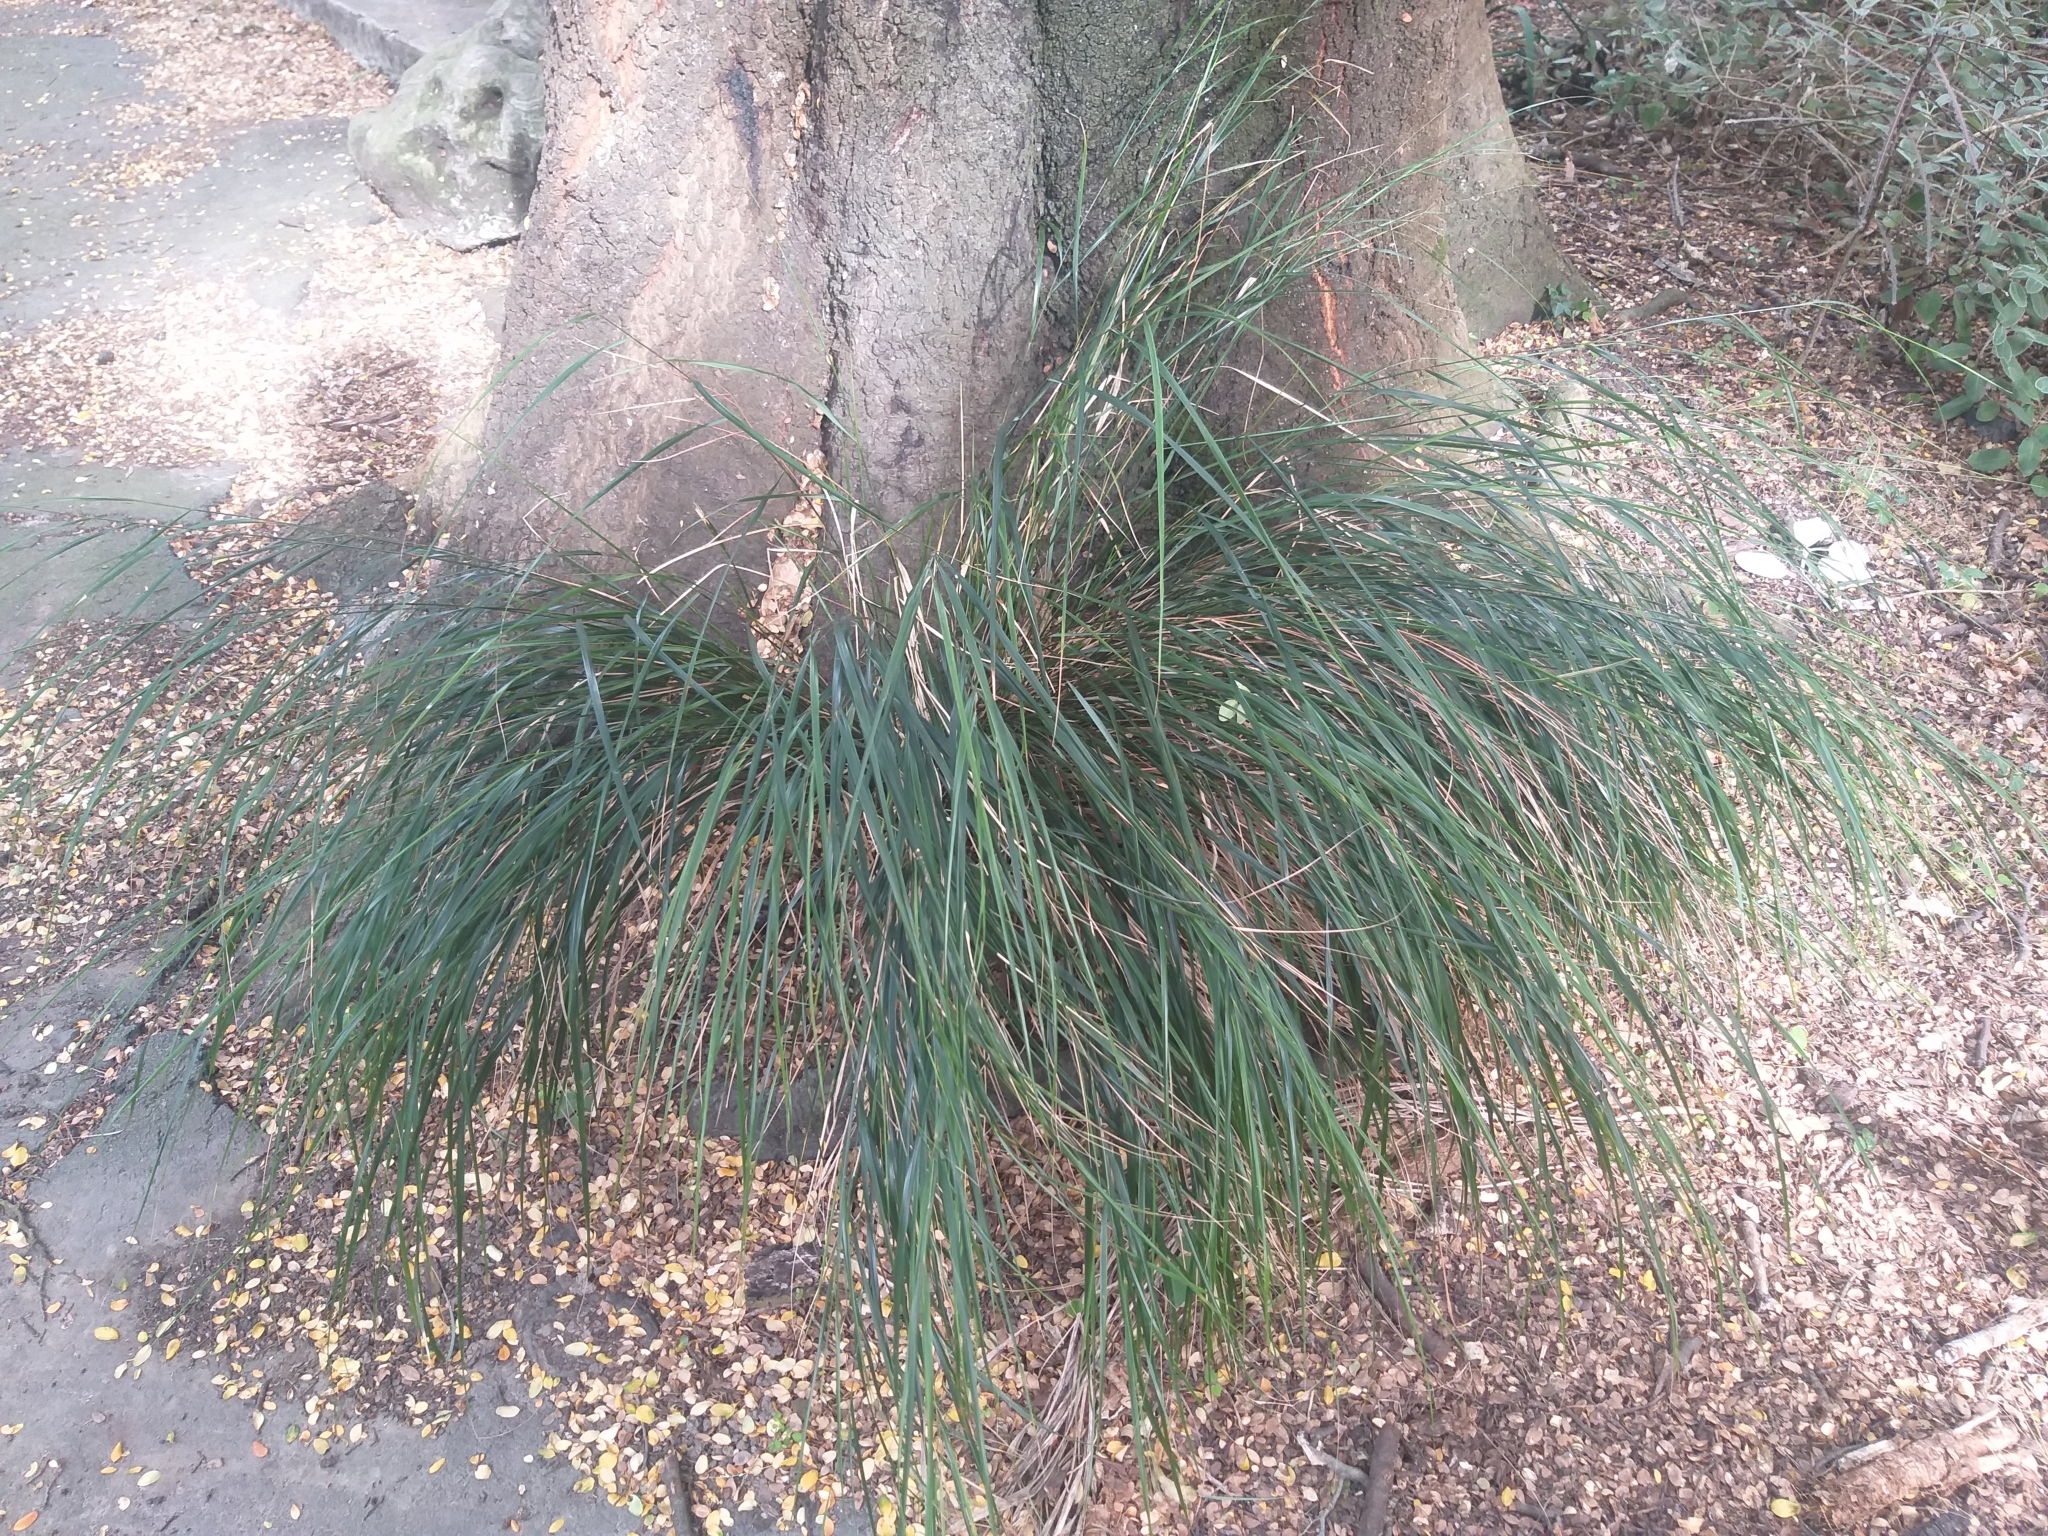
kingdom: Plantae
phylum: Tracheophyta
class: Liliopsida
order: Poales
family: Poaceae
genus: Anemanthele
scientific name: Anemanthele lessoniana
